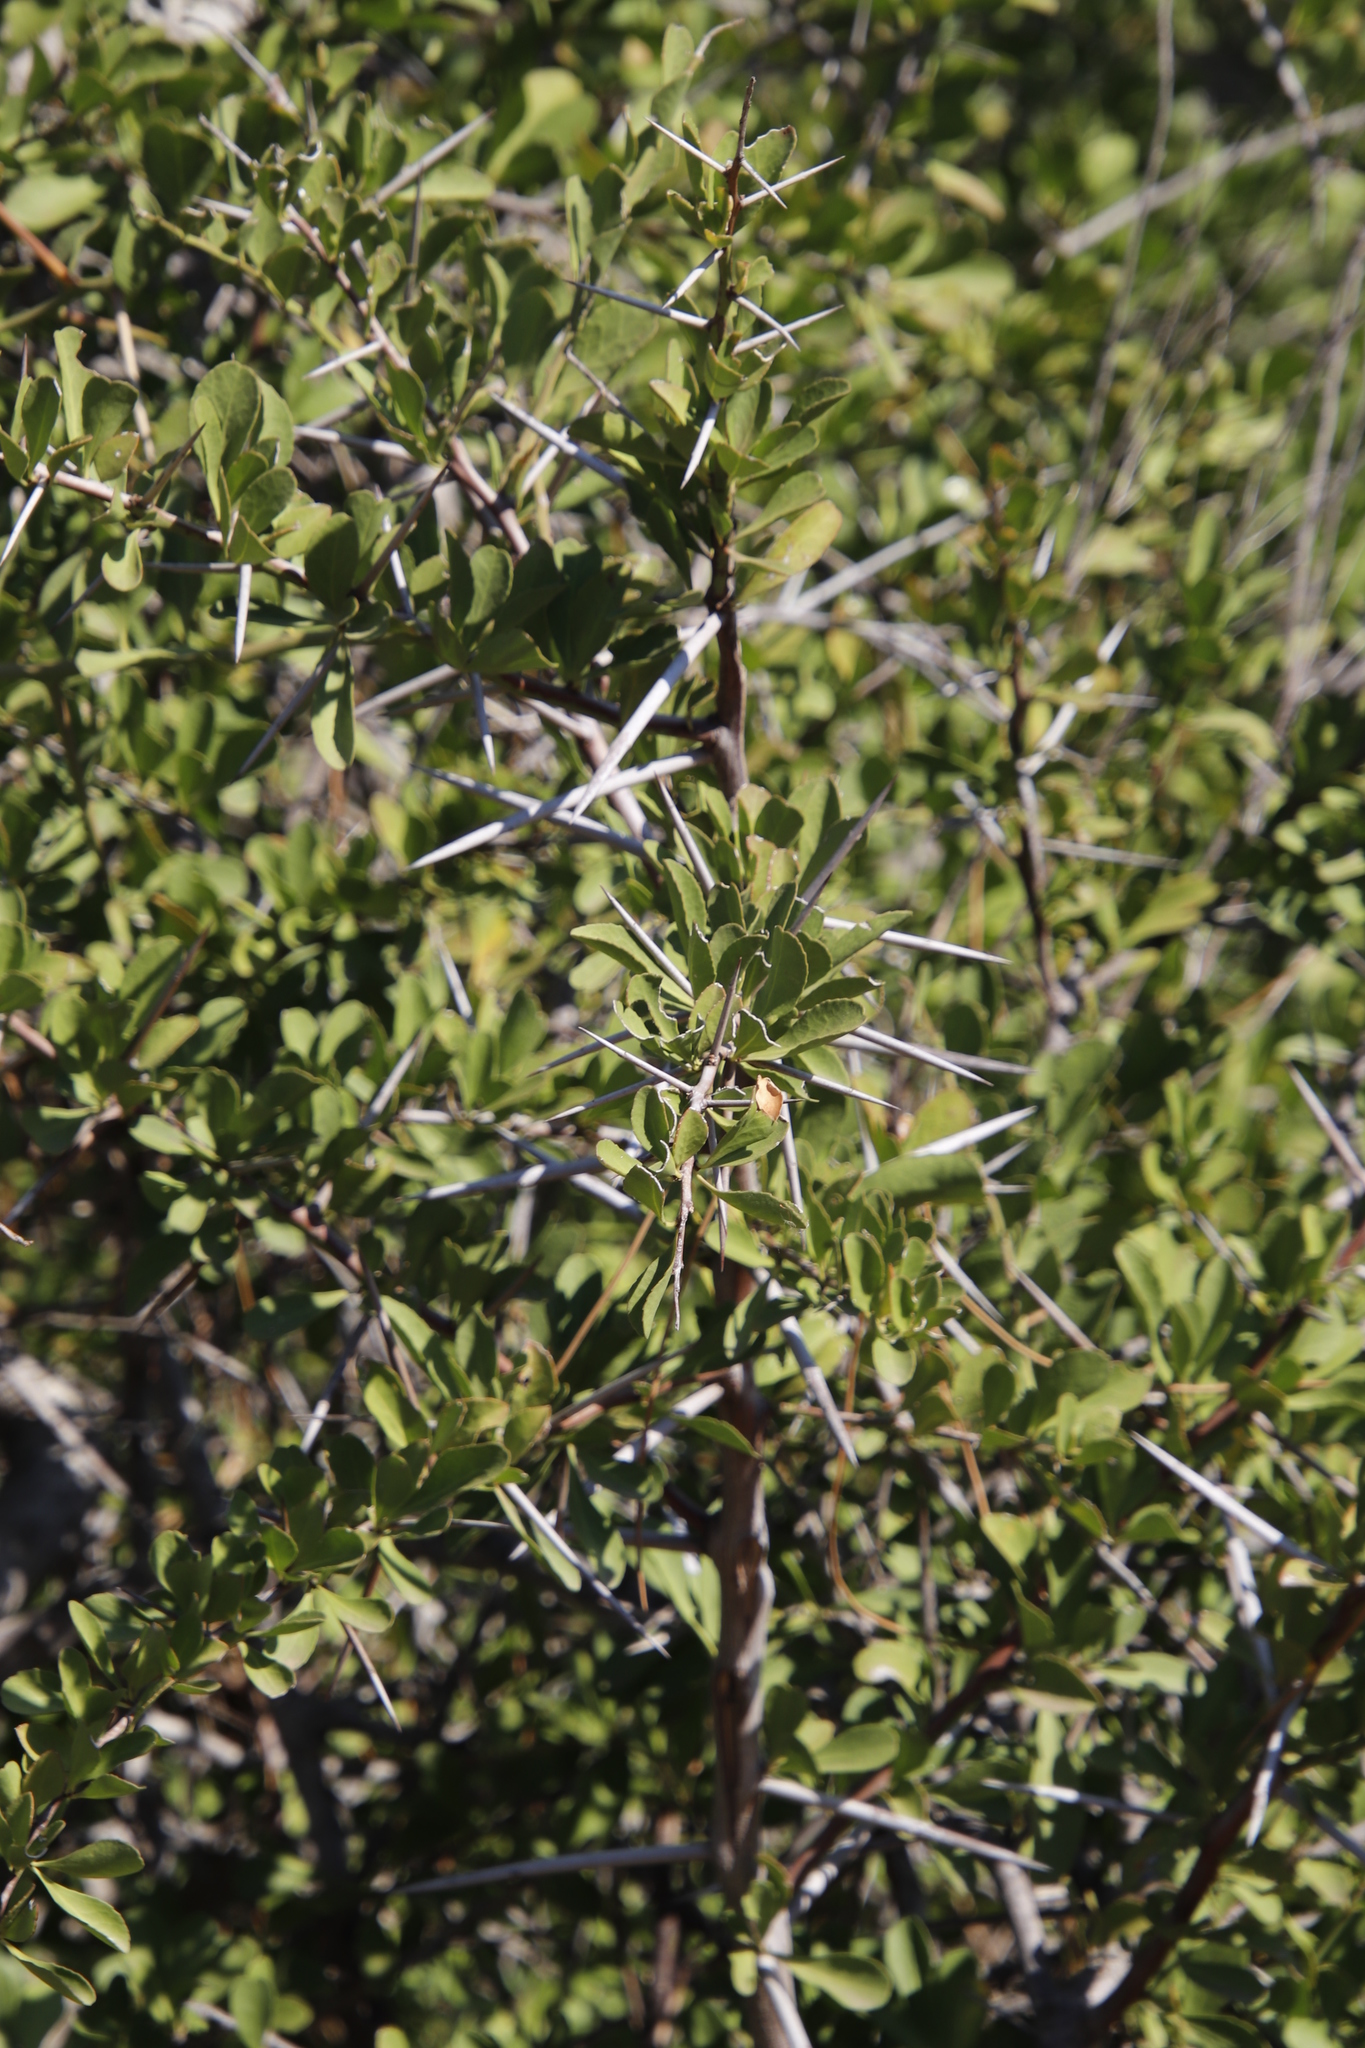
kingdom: Plantae
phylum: Tracheophyta
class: Magnoliopsida
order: Celastrales
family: Celastraceae
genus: Gymnosporia
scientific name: Gymnosporia buxifolia
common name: Common spike-thorn
